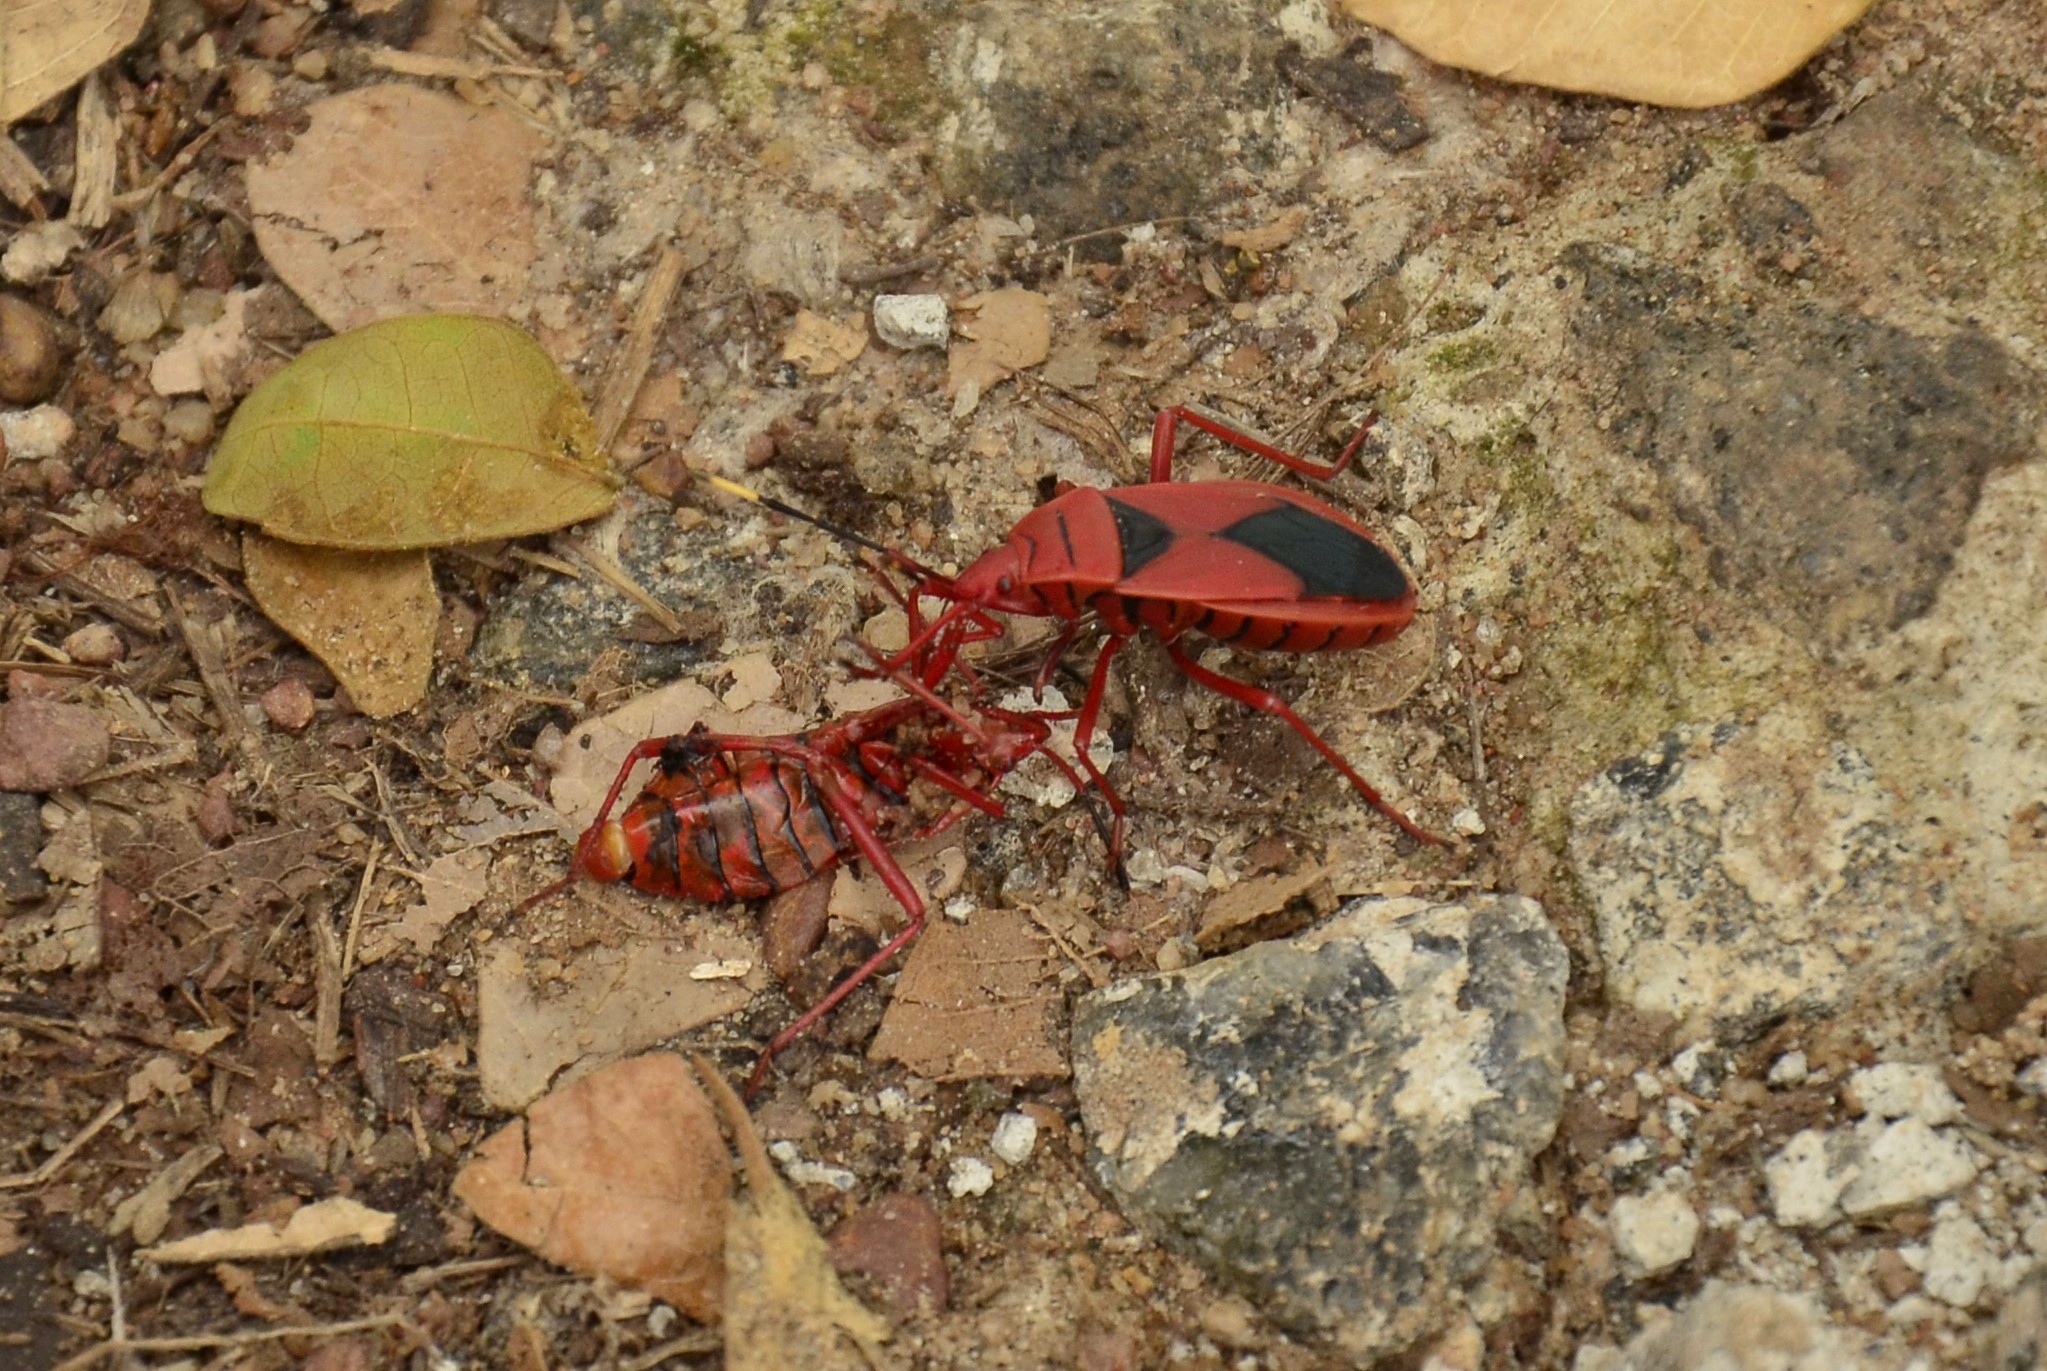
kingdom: Animalia
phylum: Arthropoda
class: Insecta
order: Hemiptera
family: Pyrrhocoridae
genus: Probergrothius
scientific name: Probergrothius
